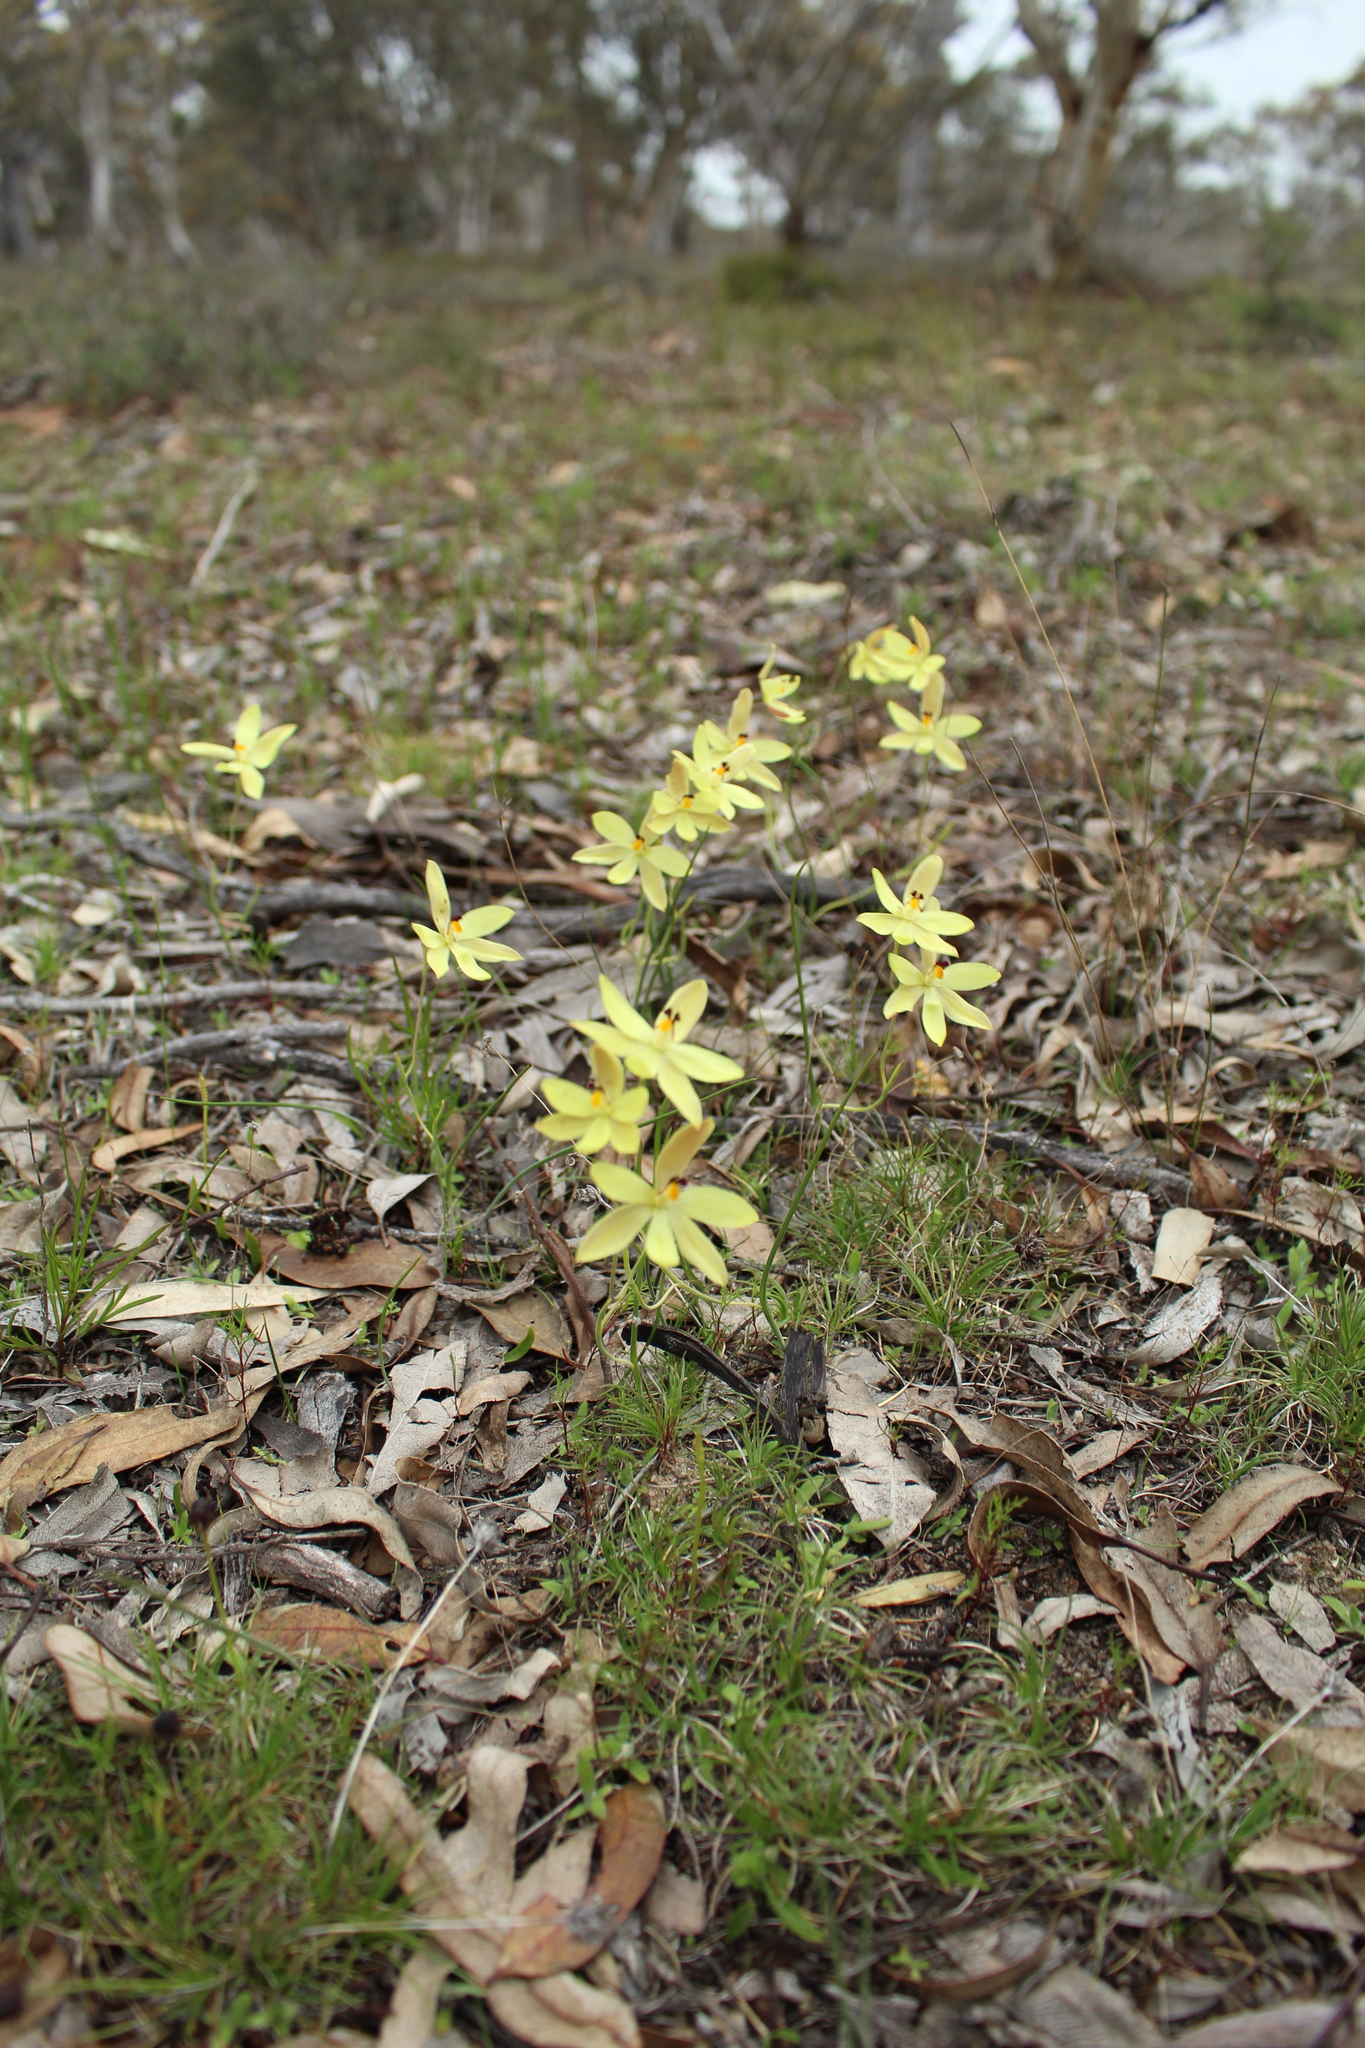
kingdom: Plantae
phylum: Tracheophyta
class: Liliopsida
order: Asparagales
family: Orchidaceae
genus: Thelymitra
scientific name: Thelymitra antennifera
